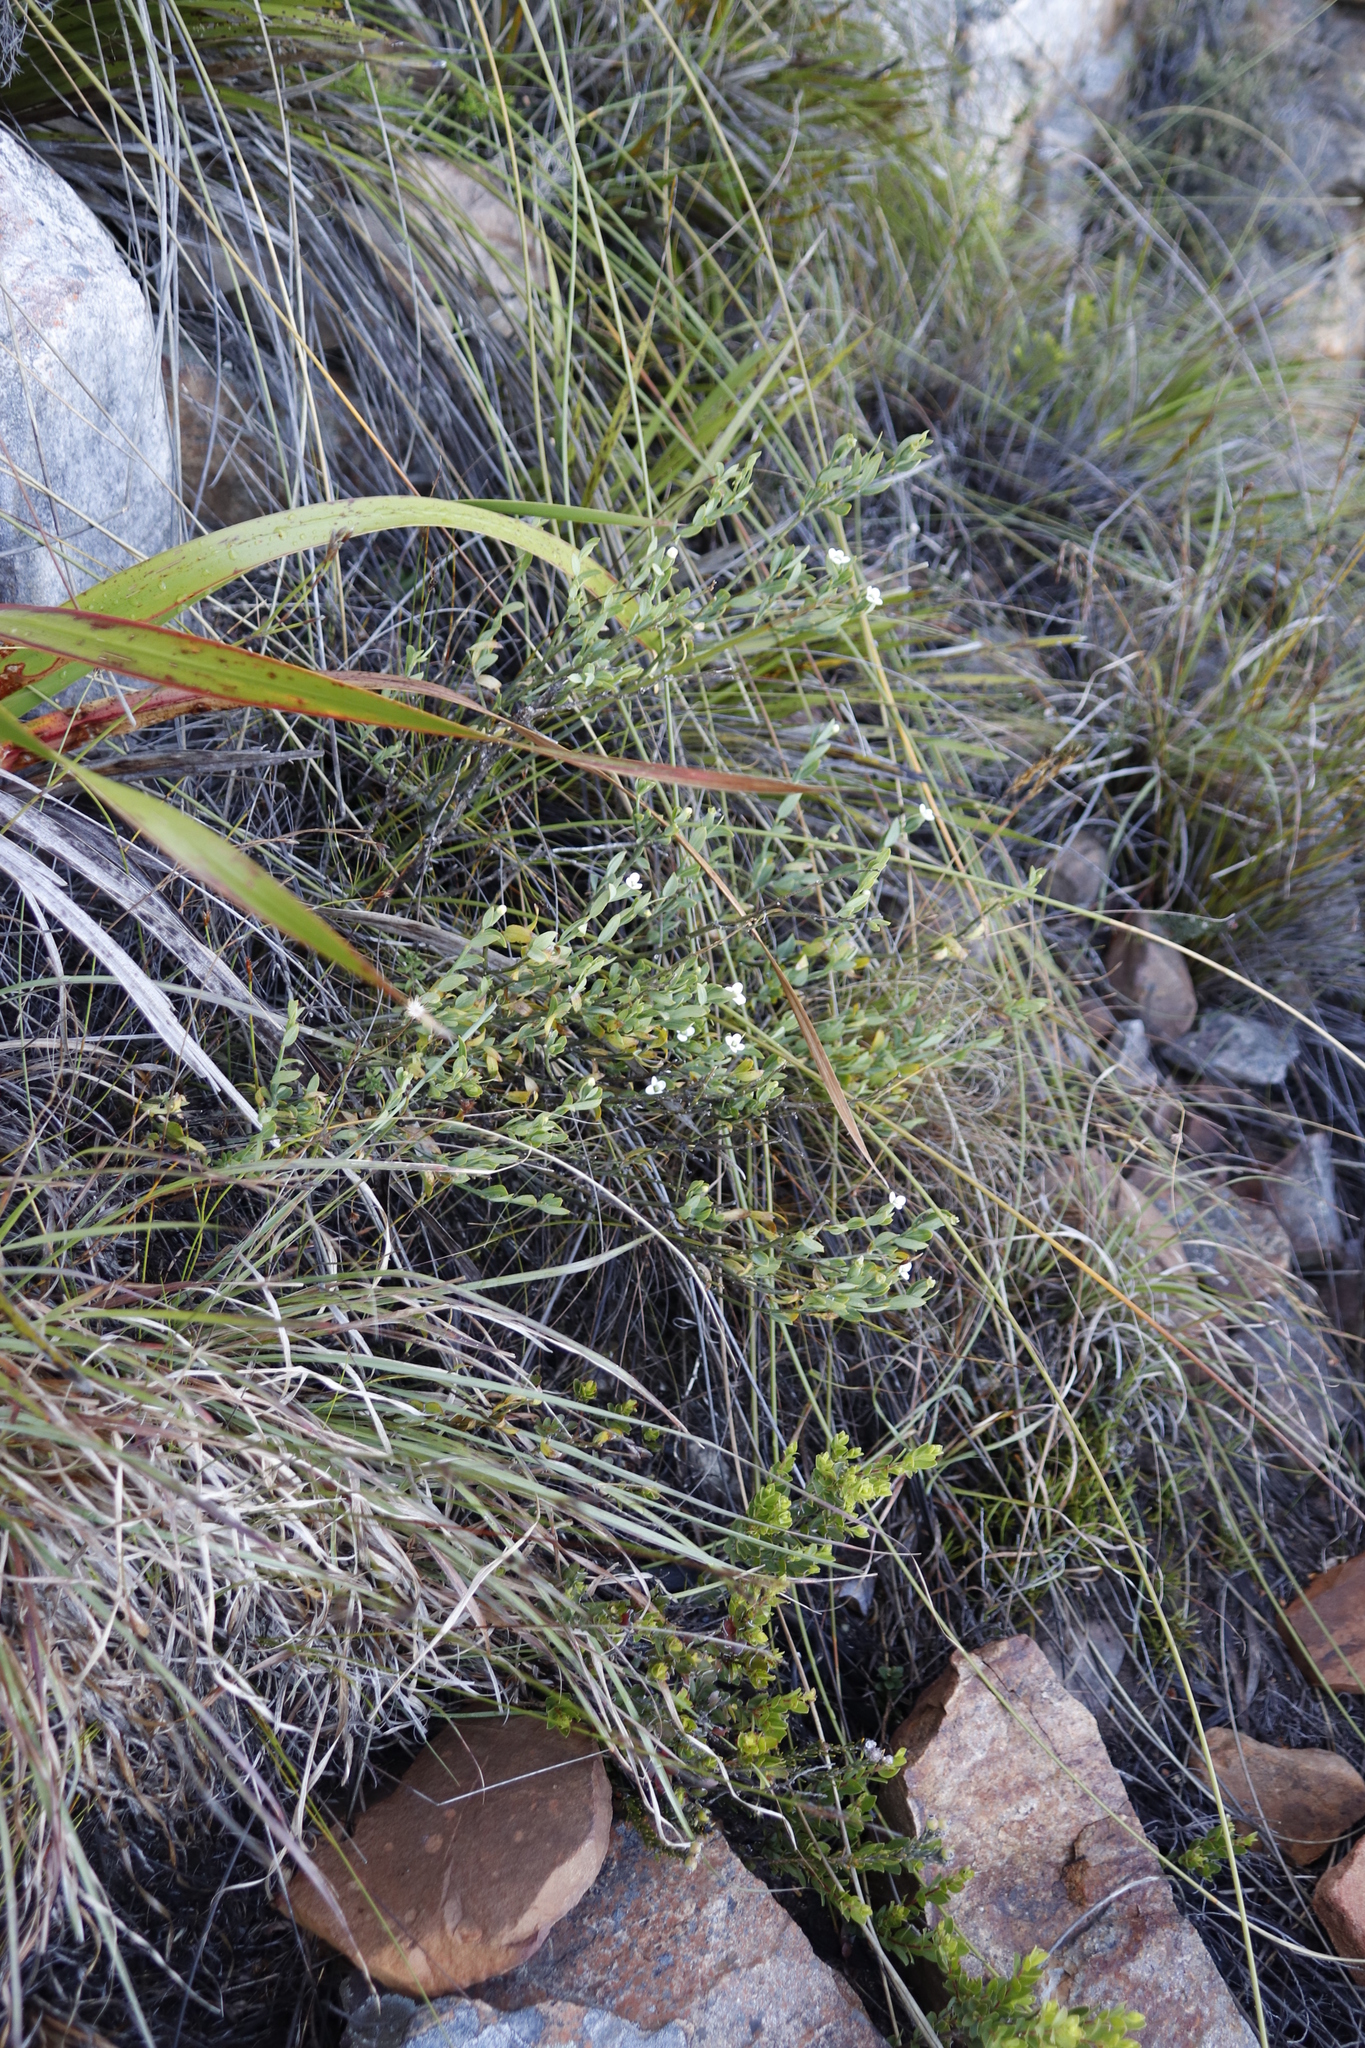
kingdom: Plantae
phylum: Tracheophyta
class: Magnoliopsida
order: Solanales
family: Montiniaceae
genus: Montinia
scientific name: Montinia caryophyllacea
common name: Wild clove-bush
